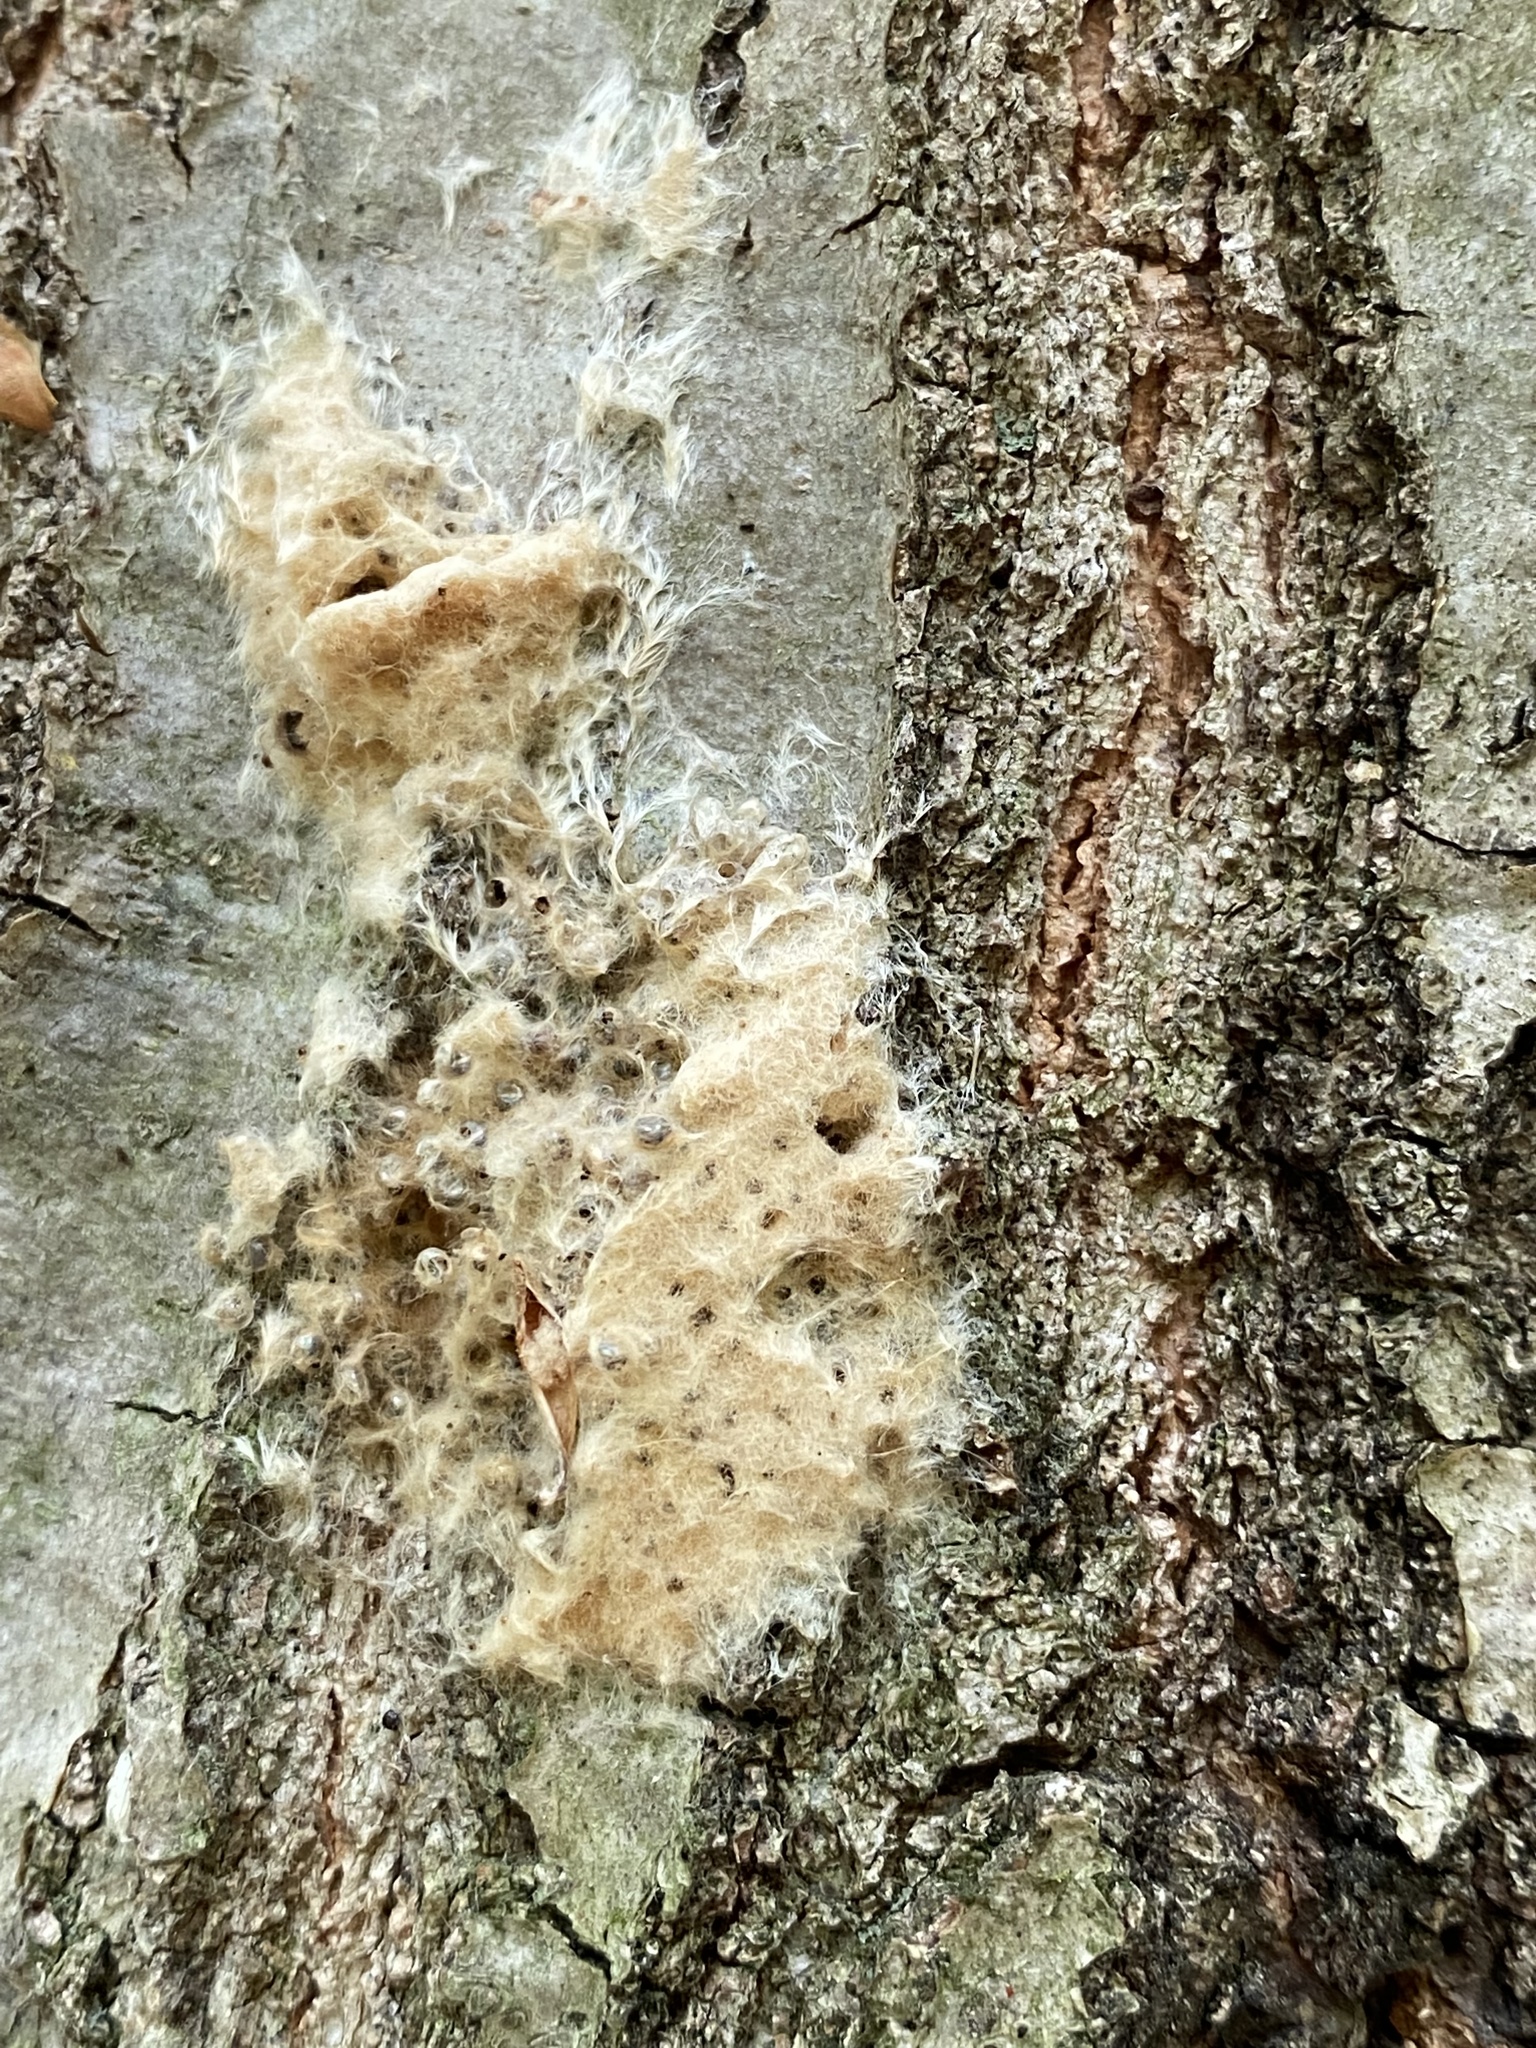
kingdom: Animalia
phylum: Arthropoda
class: Insecta
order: Lepidoptera
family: Erebidae
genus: Lymantria
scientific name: Lymantria dispar
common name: Gypsy moth
